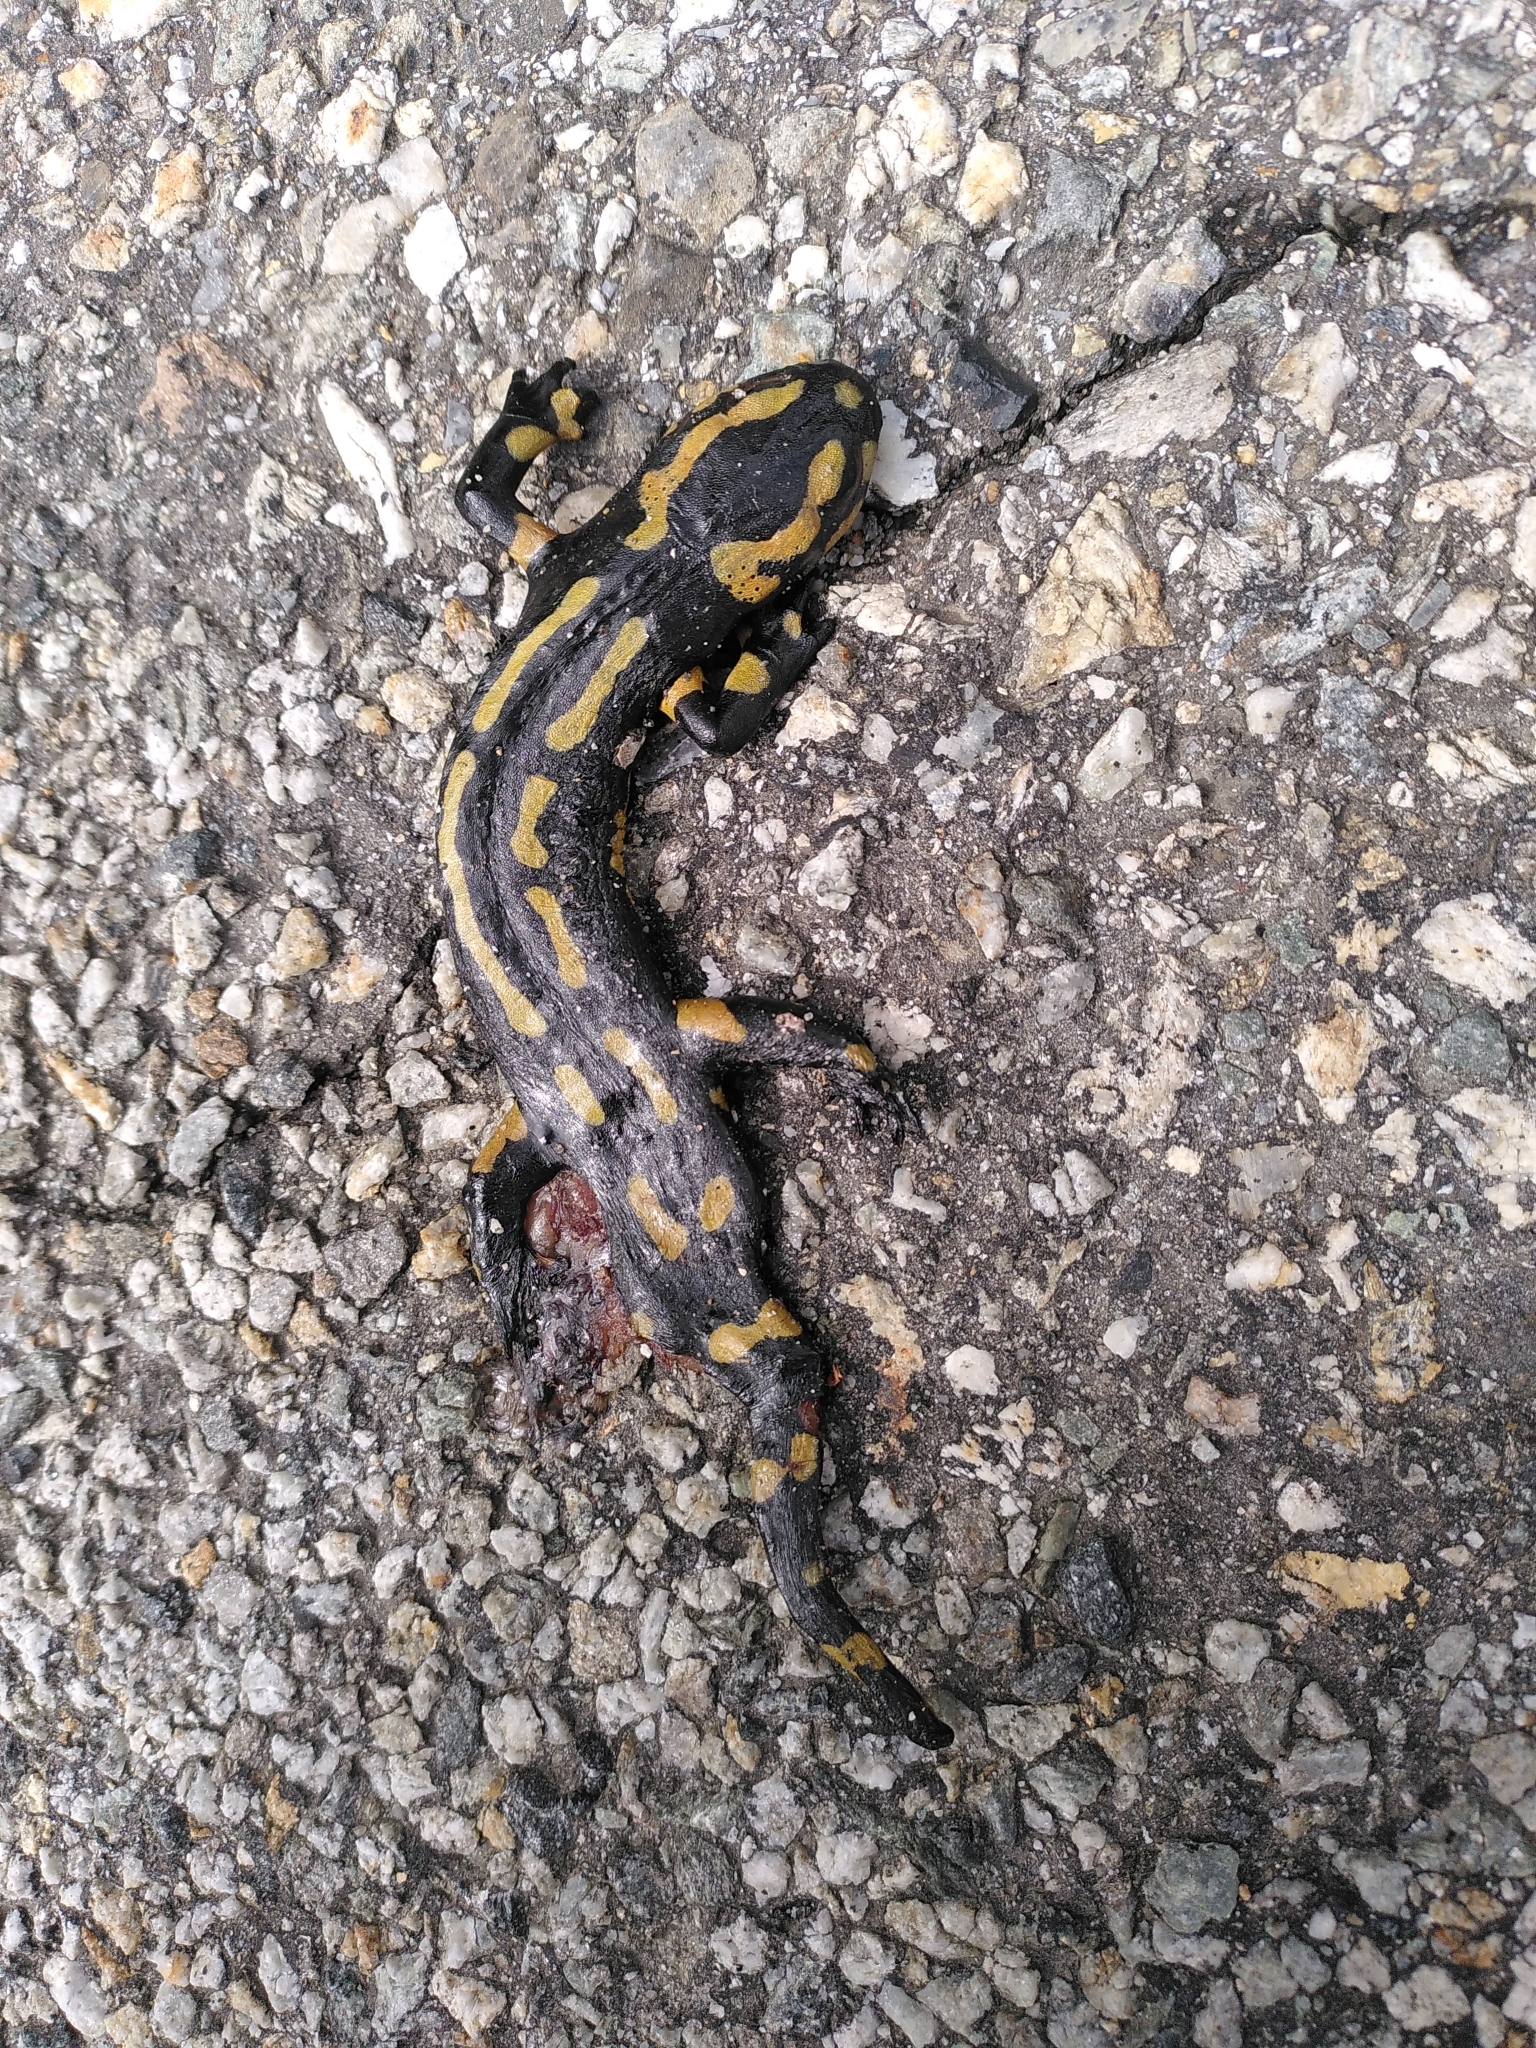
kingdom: Animalia
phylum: Chordata
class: Amphibia
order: Caudata
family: Salamandridae
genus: Salamandra
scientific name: Salamandra salamandra
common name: Fire salamander
